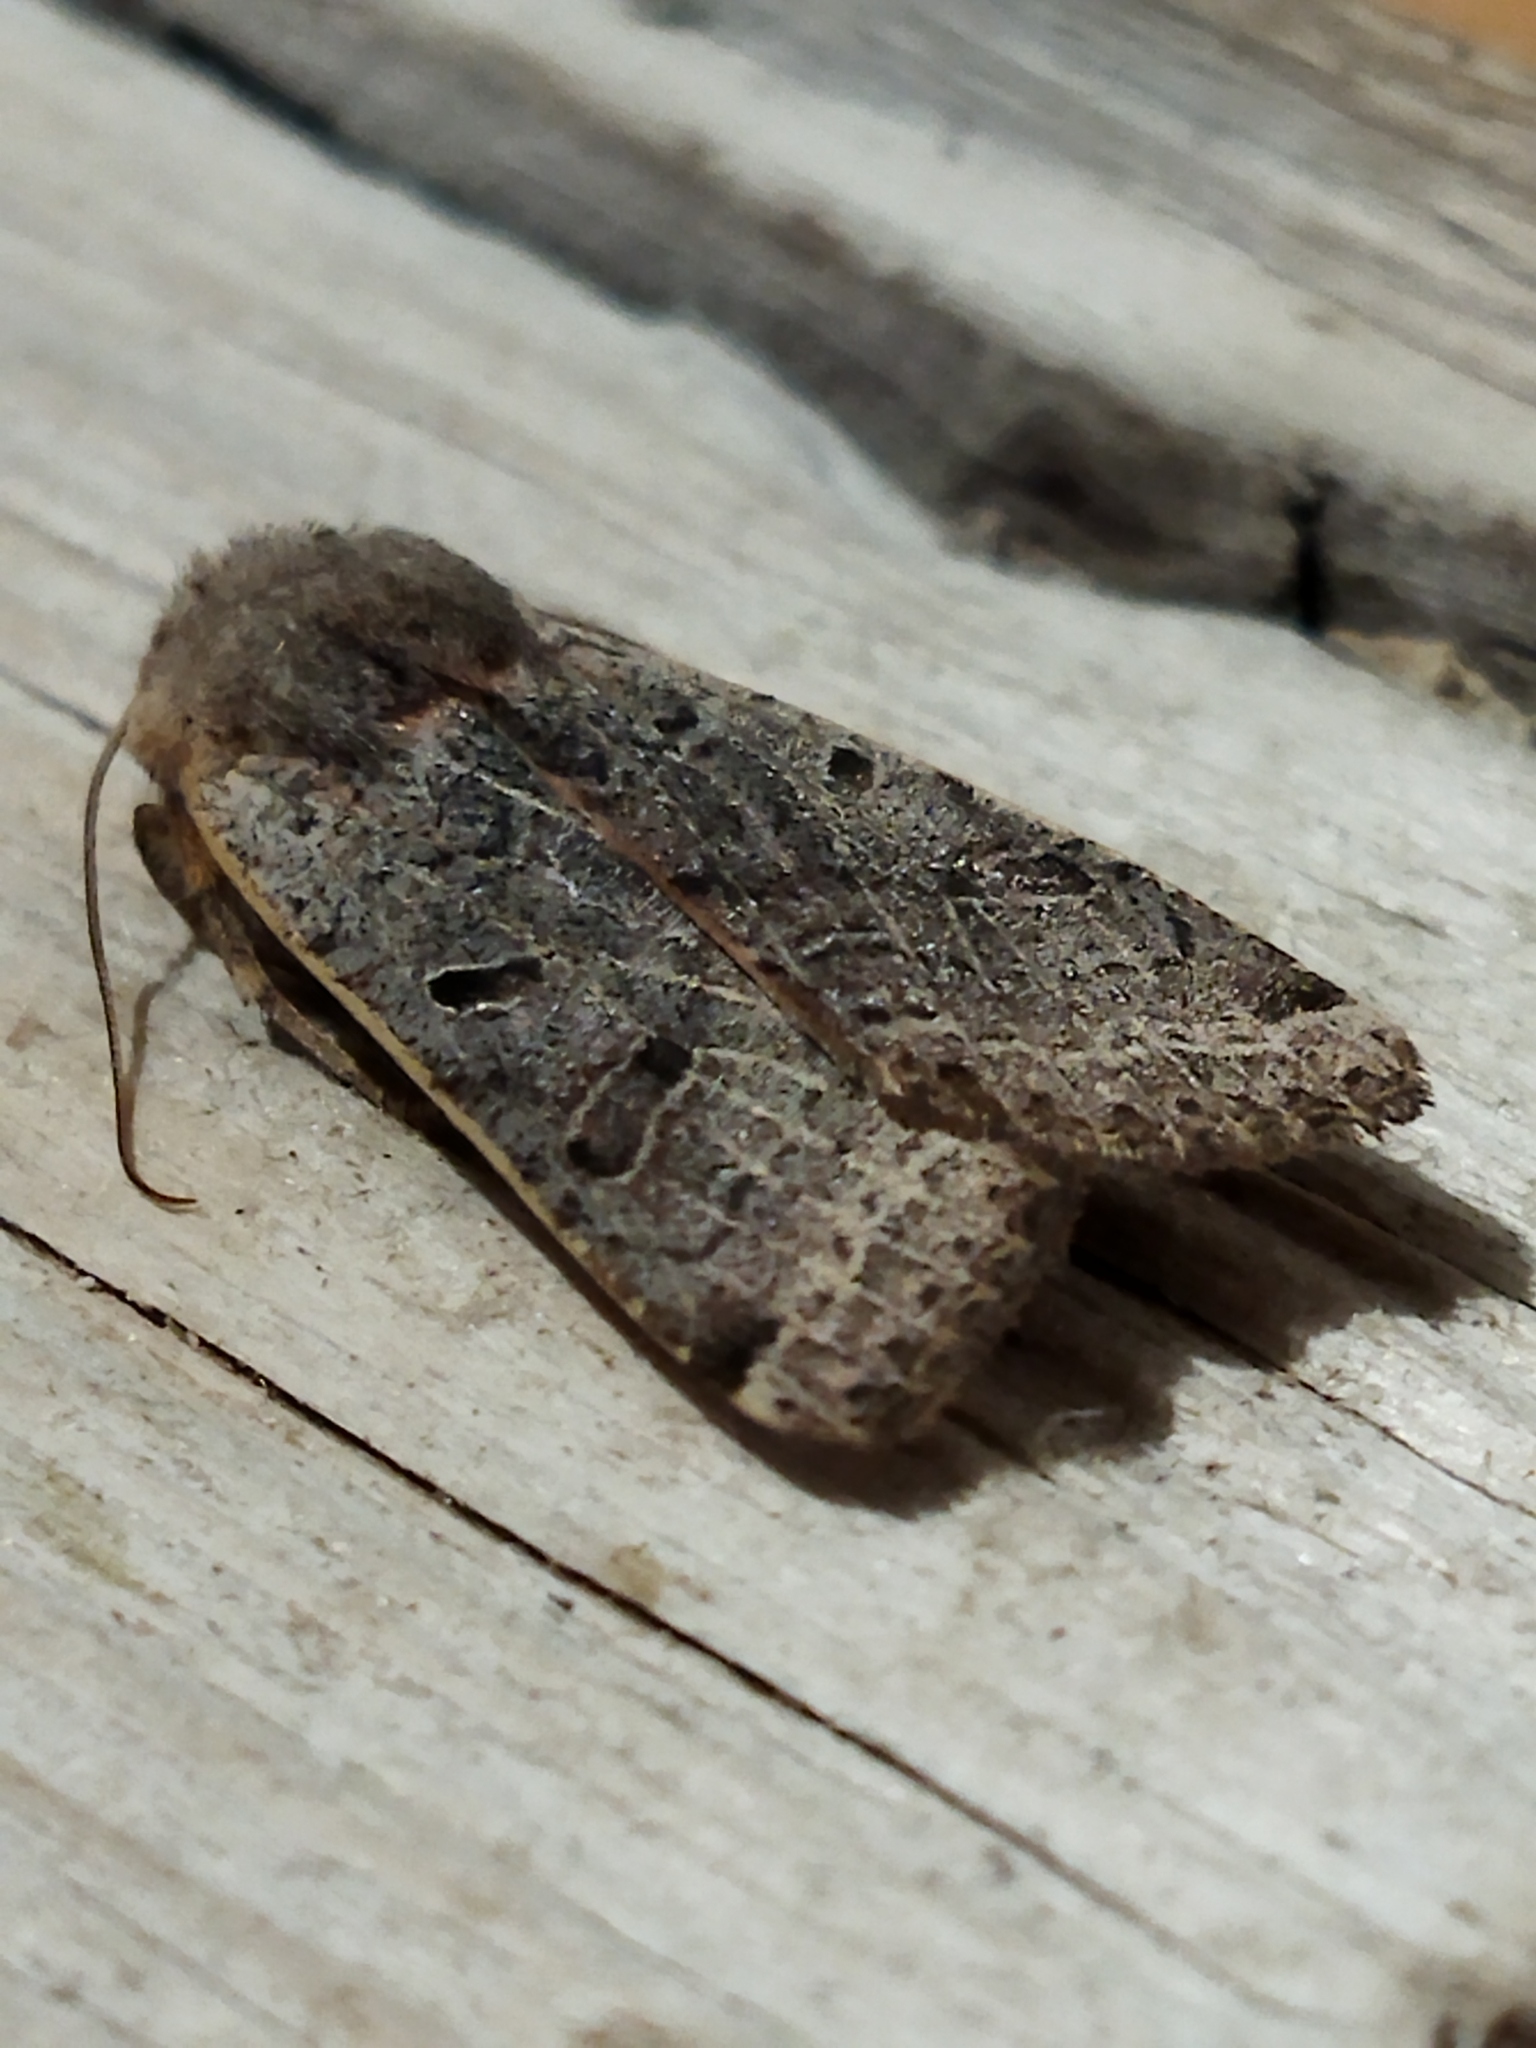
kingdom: Animalia
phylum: Arthropoda
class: Insecta
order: Lepidoptera
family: Noctuidae
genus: Agrochola
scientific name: Agrochola lychnidis
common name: Beaded chestnut
